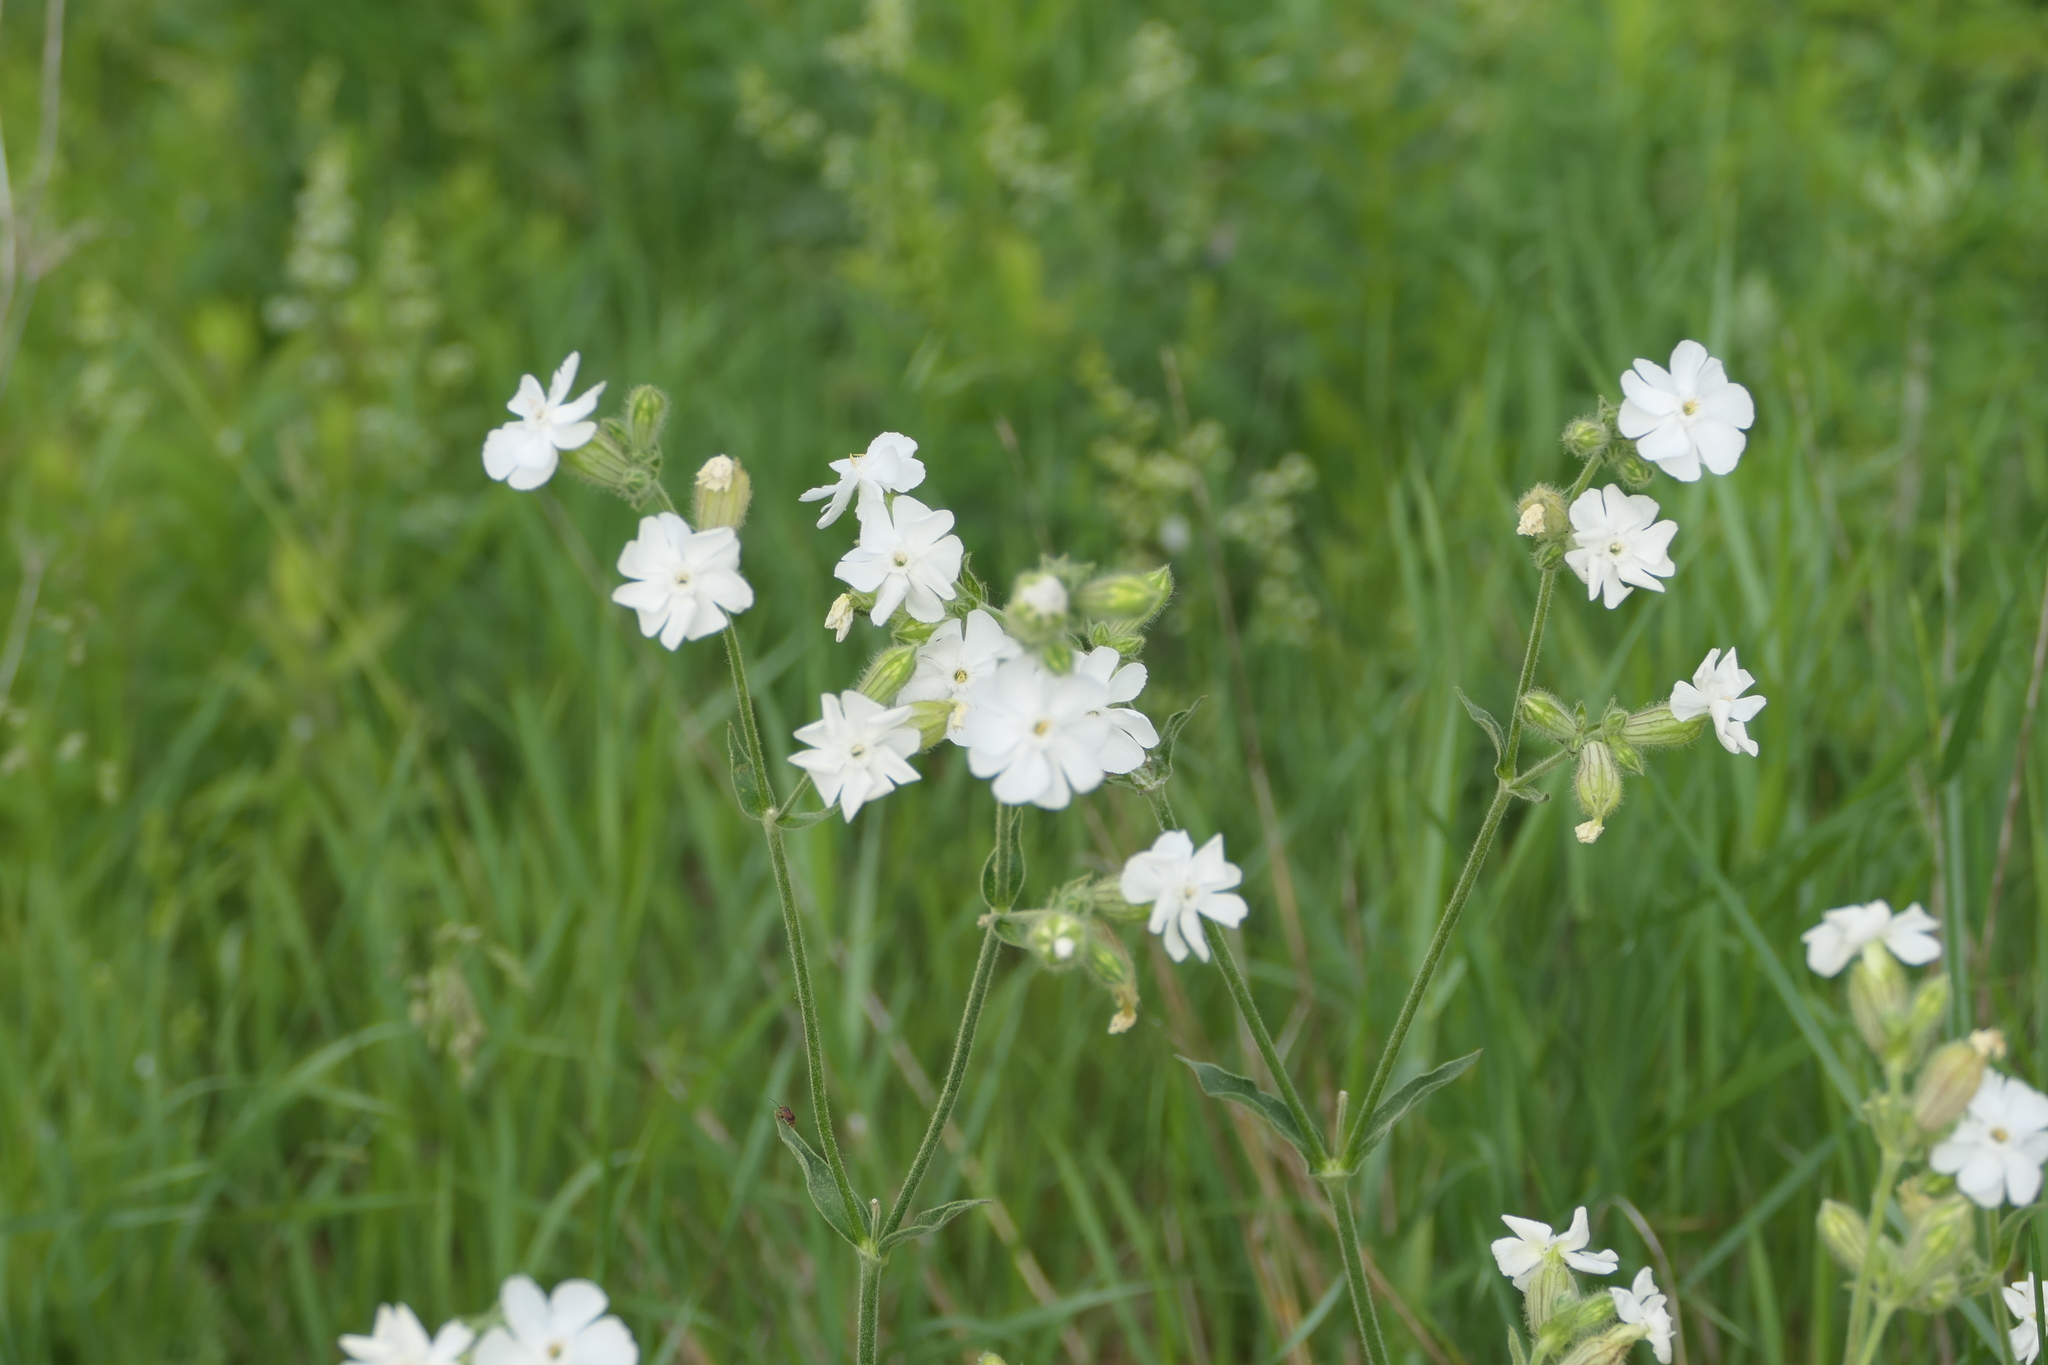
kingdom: Plantae
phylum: Tracheophyta
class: Magnoliopsida
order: Caryophyllales
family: Caryophyllaceae
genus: Silene
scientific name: Silene latifolia
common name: White campion
